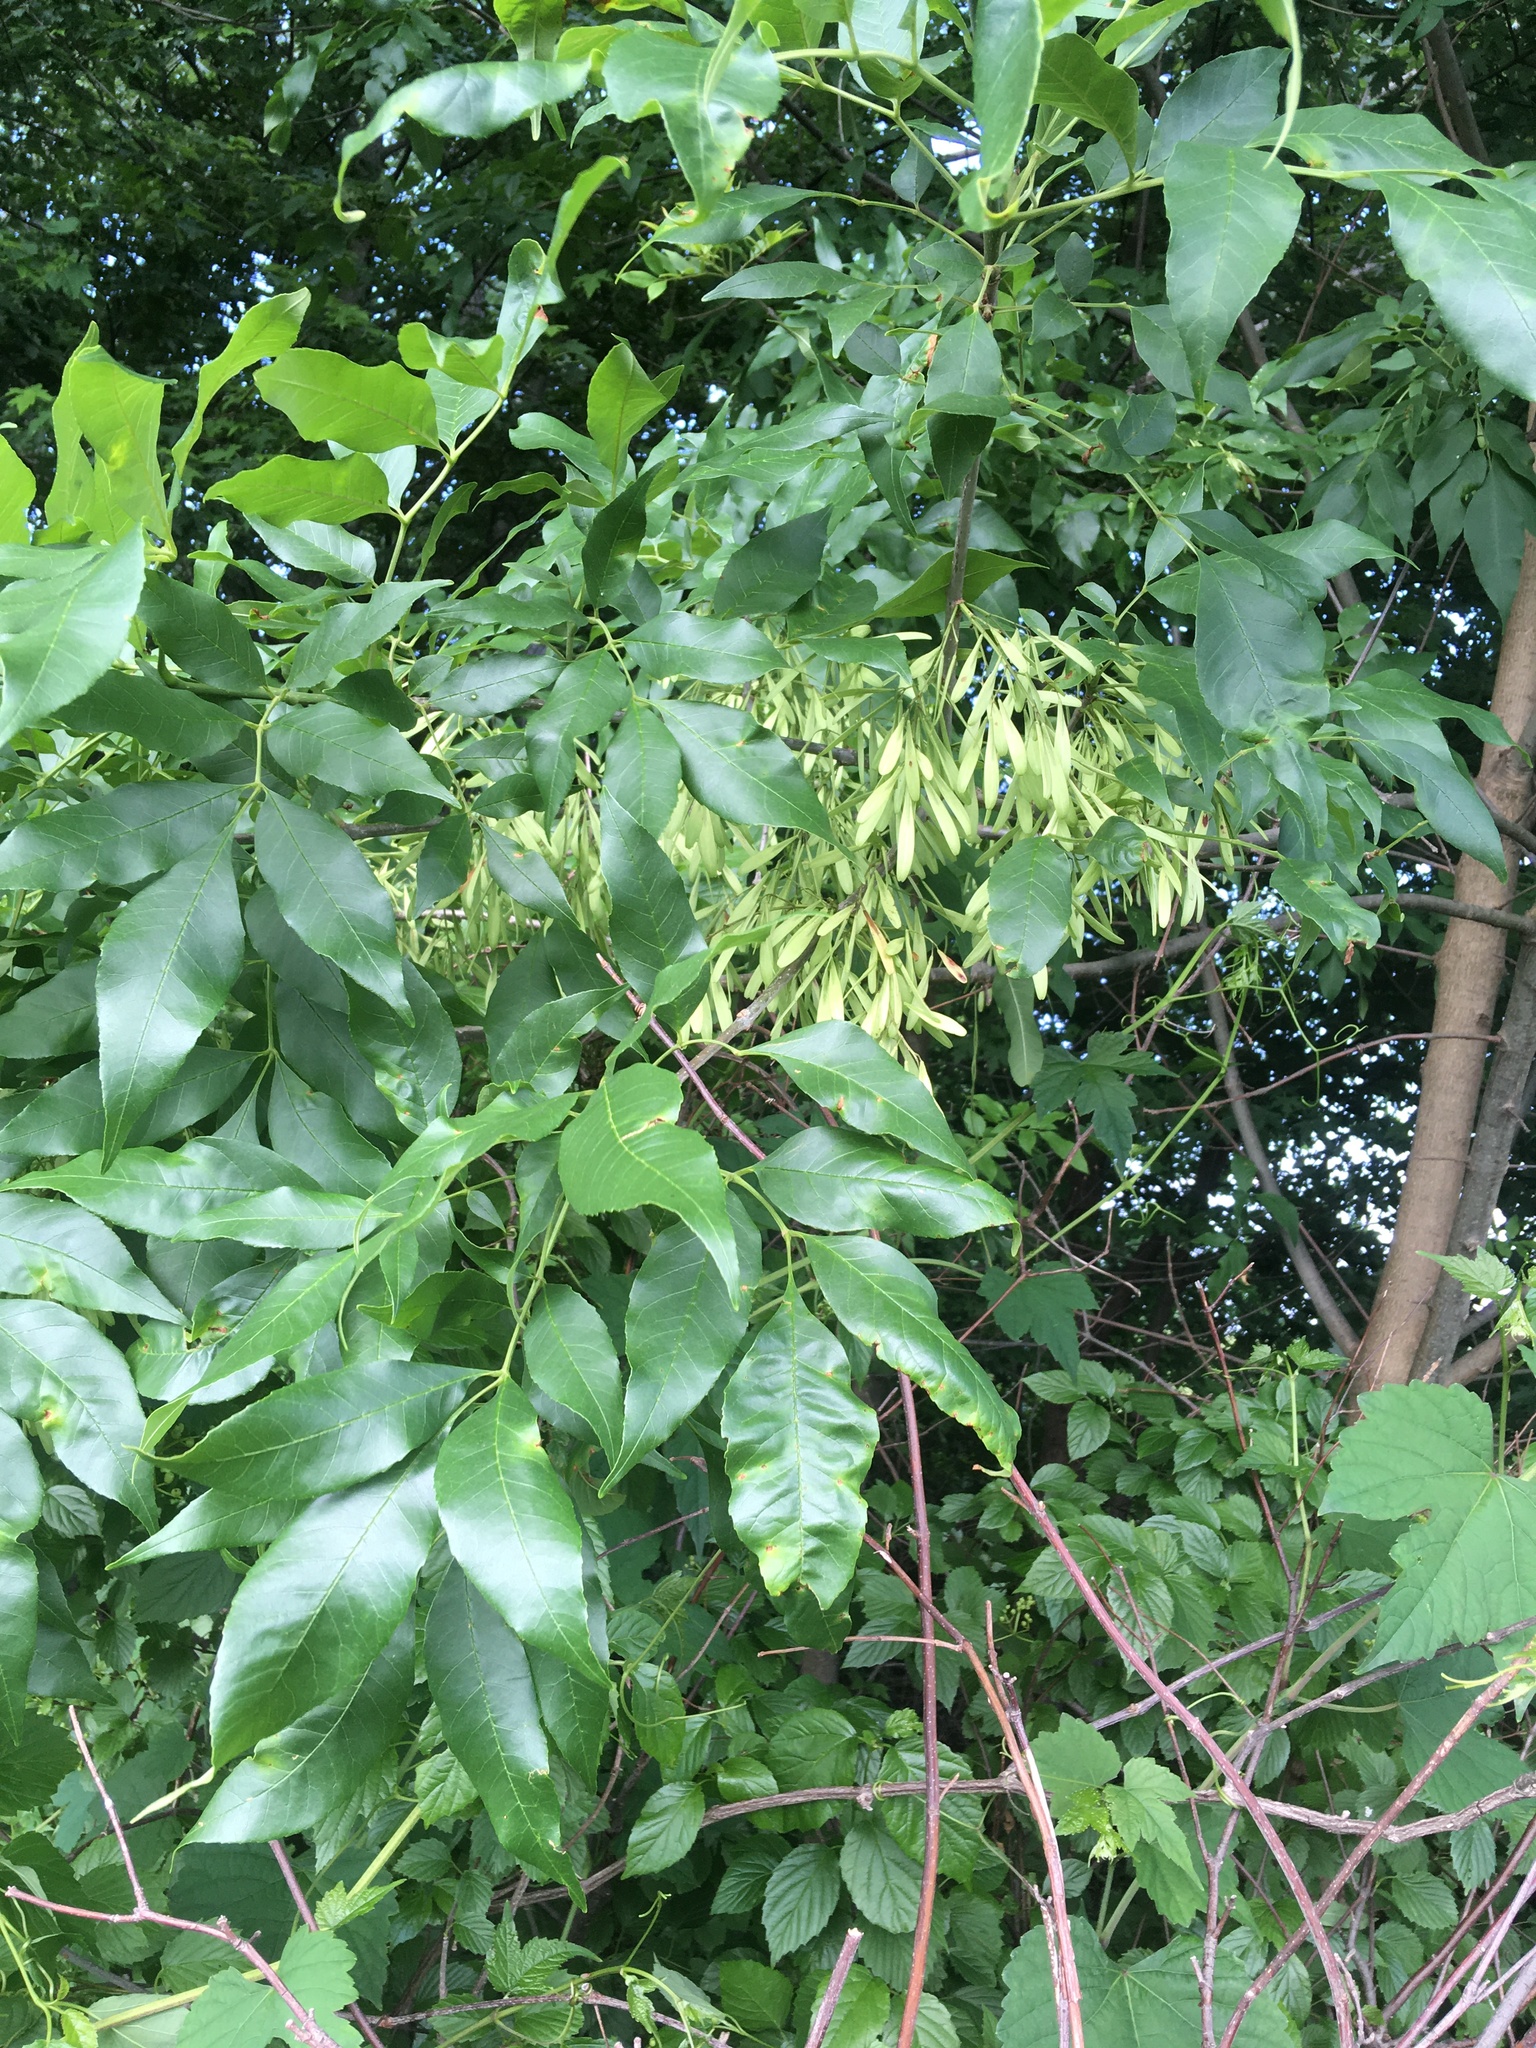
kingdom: Plantae
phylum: Tracheophyta
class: Magnoliopsida
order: Lamiales
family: Oleaceae
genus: Fraxinus
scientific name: Fraxinus pennsylvanica
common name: Green ash
